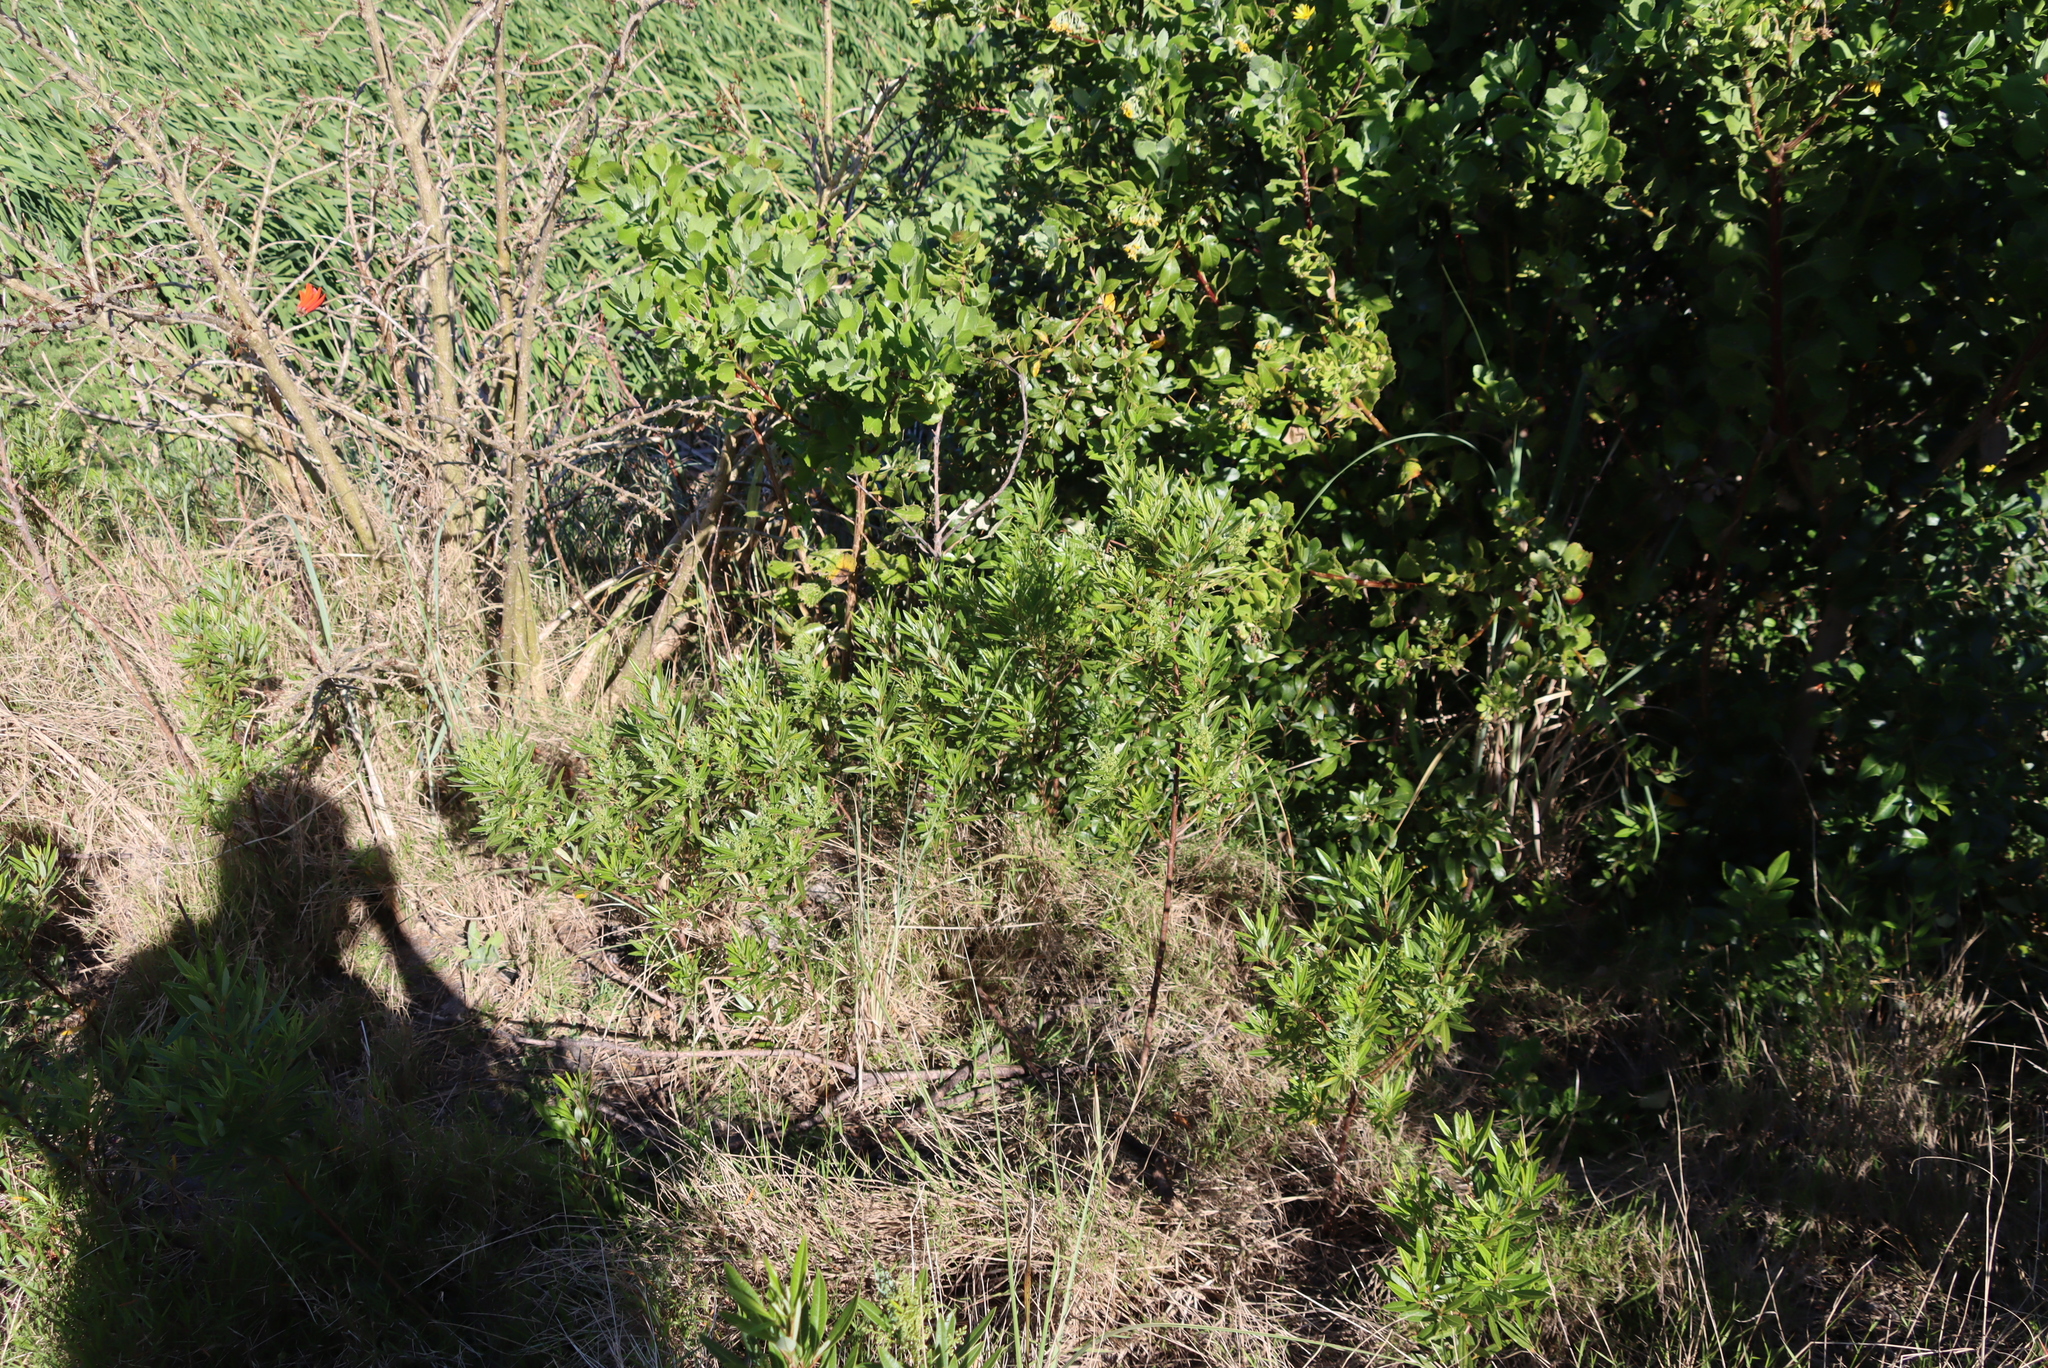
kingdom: Plantae
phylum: Tracheophyta
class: Magnoliopsida
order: Sapindales
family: Anacardiaceae
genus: Searsia
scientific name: Searsia angustifolia
